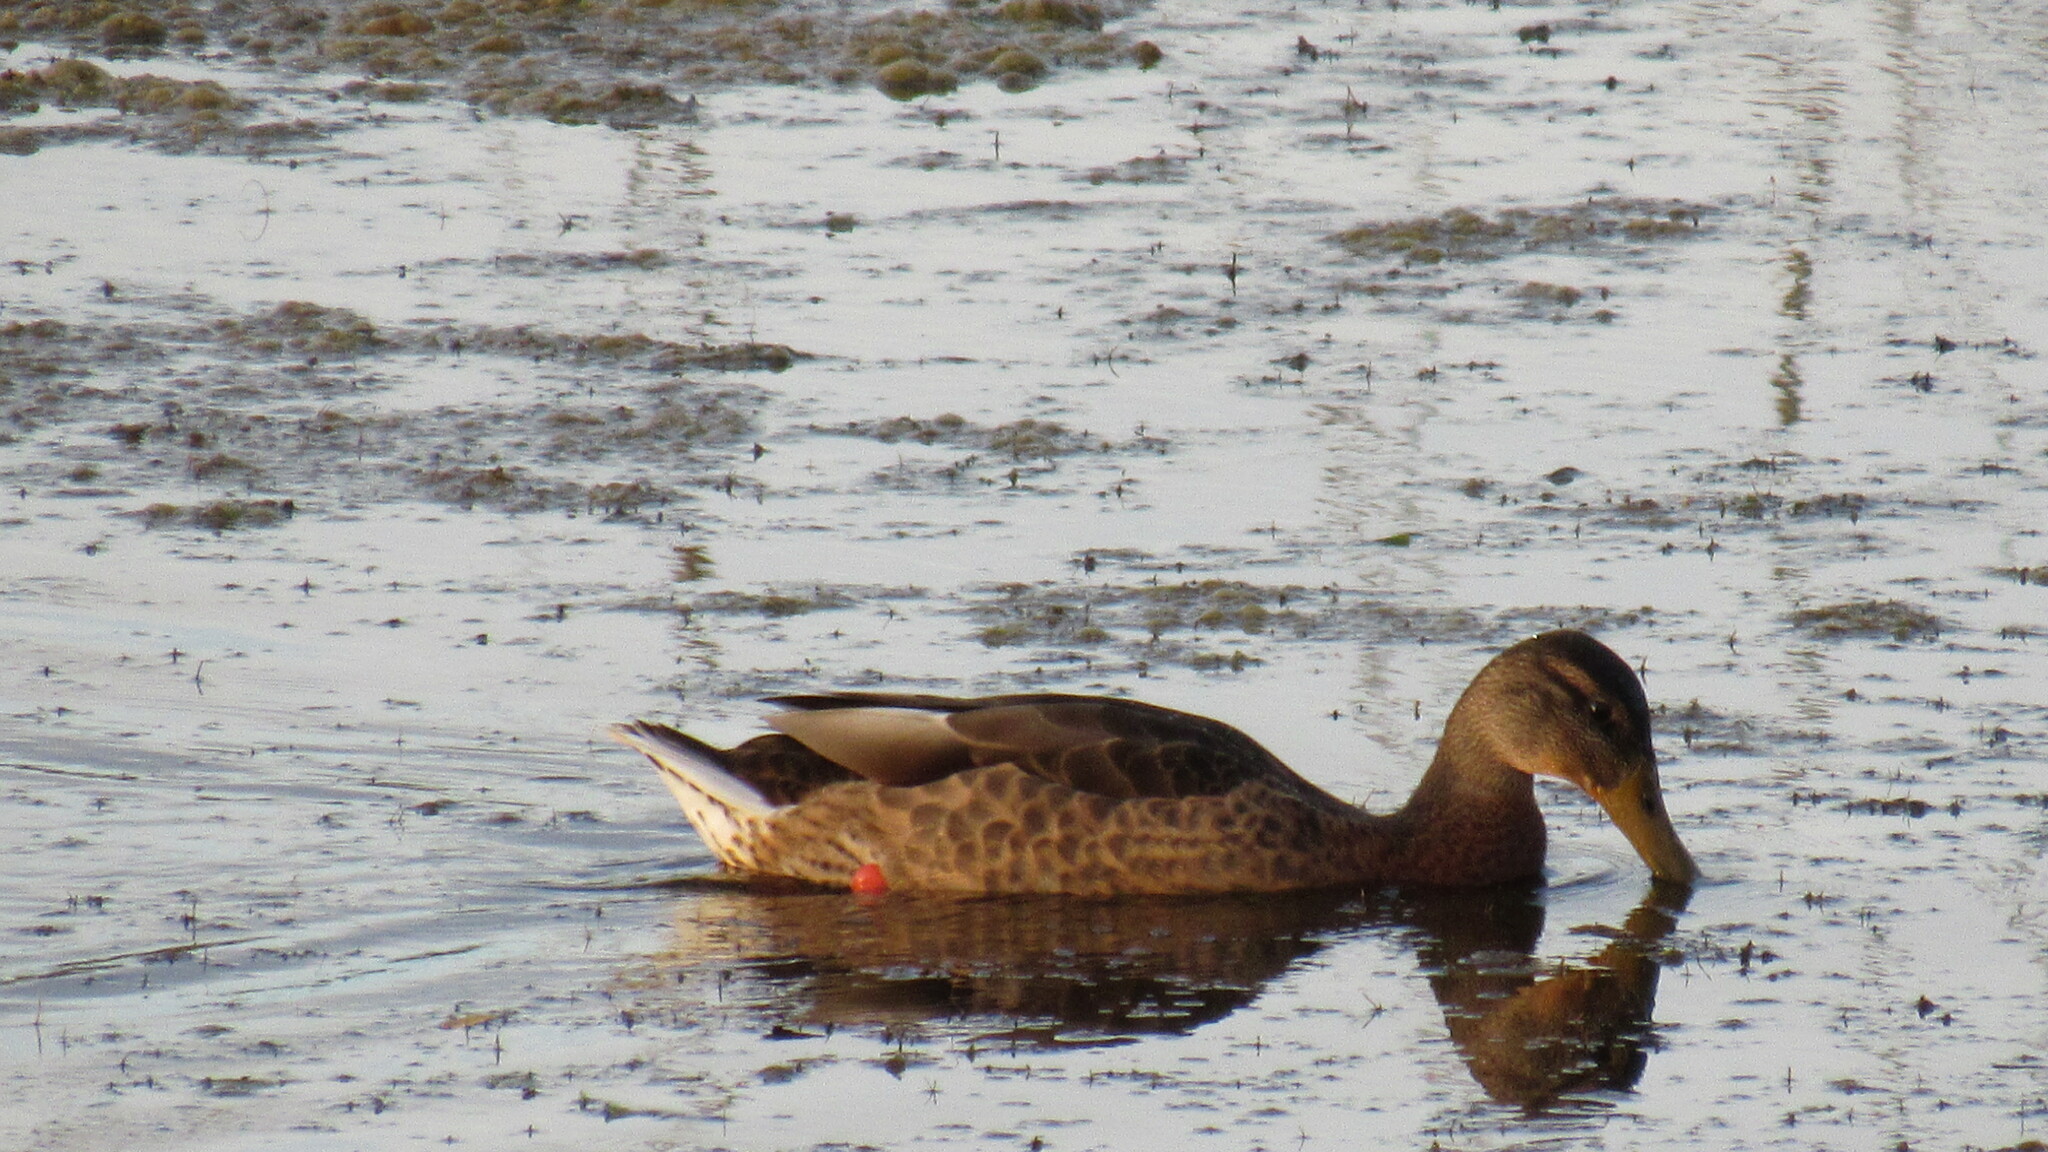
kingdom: Animalia
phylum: Chordata
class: Aves
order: Anseriformes
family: Anatidae
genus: Anas
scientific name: Anas platyrhynchos
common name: Mallard
